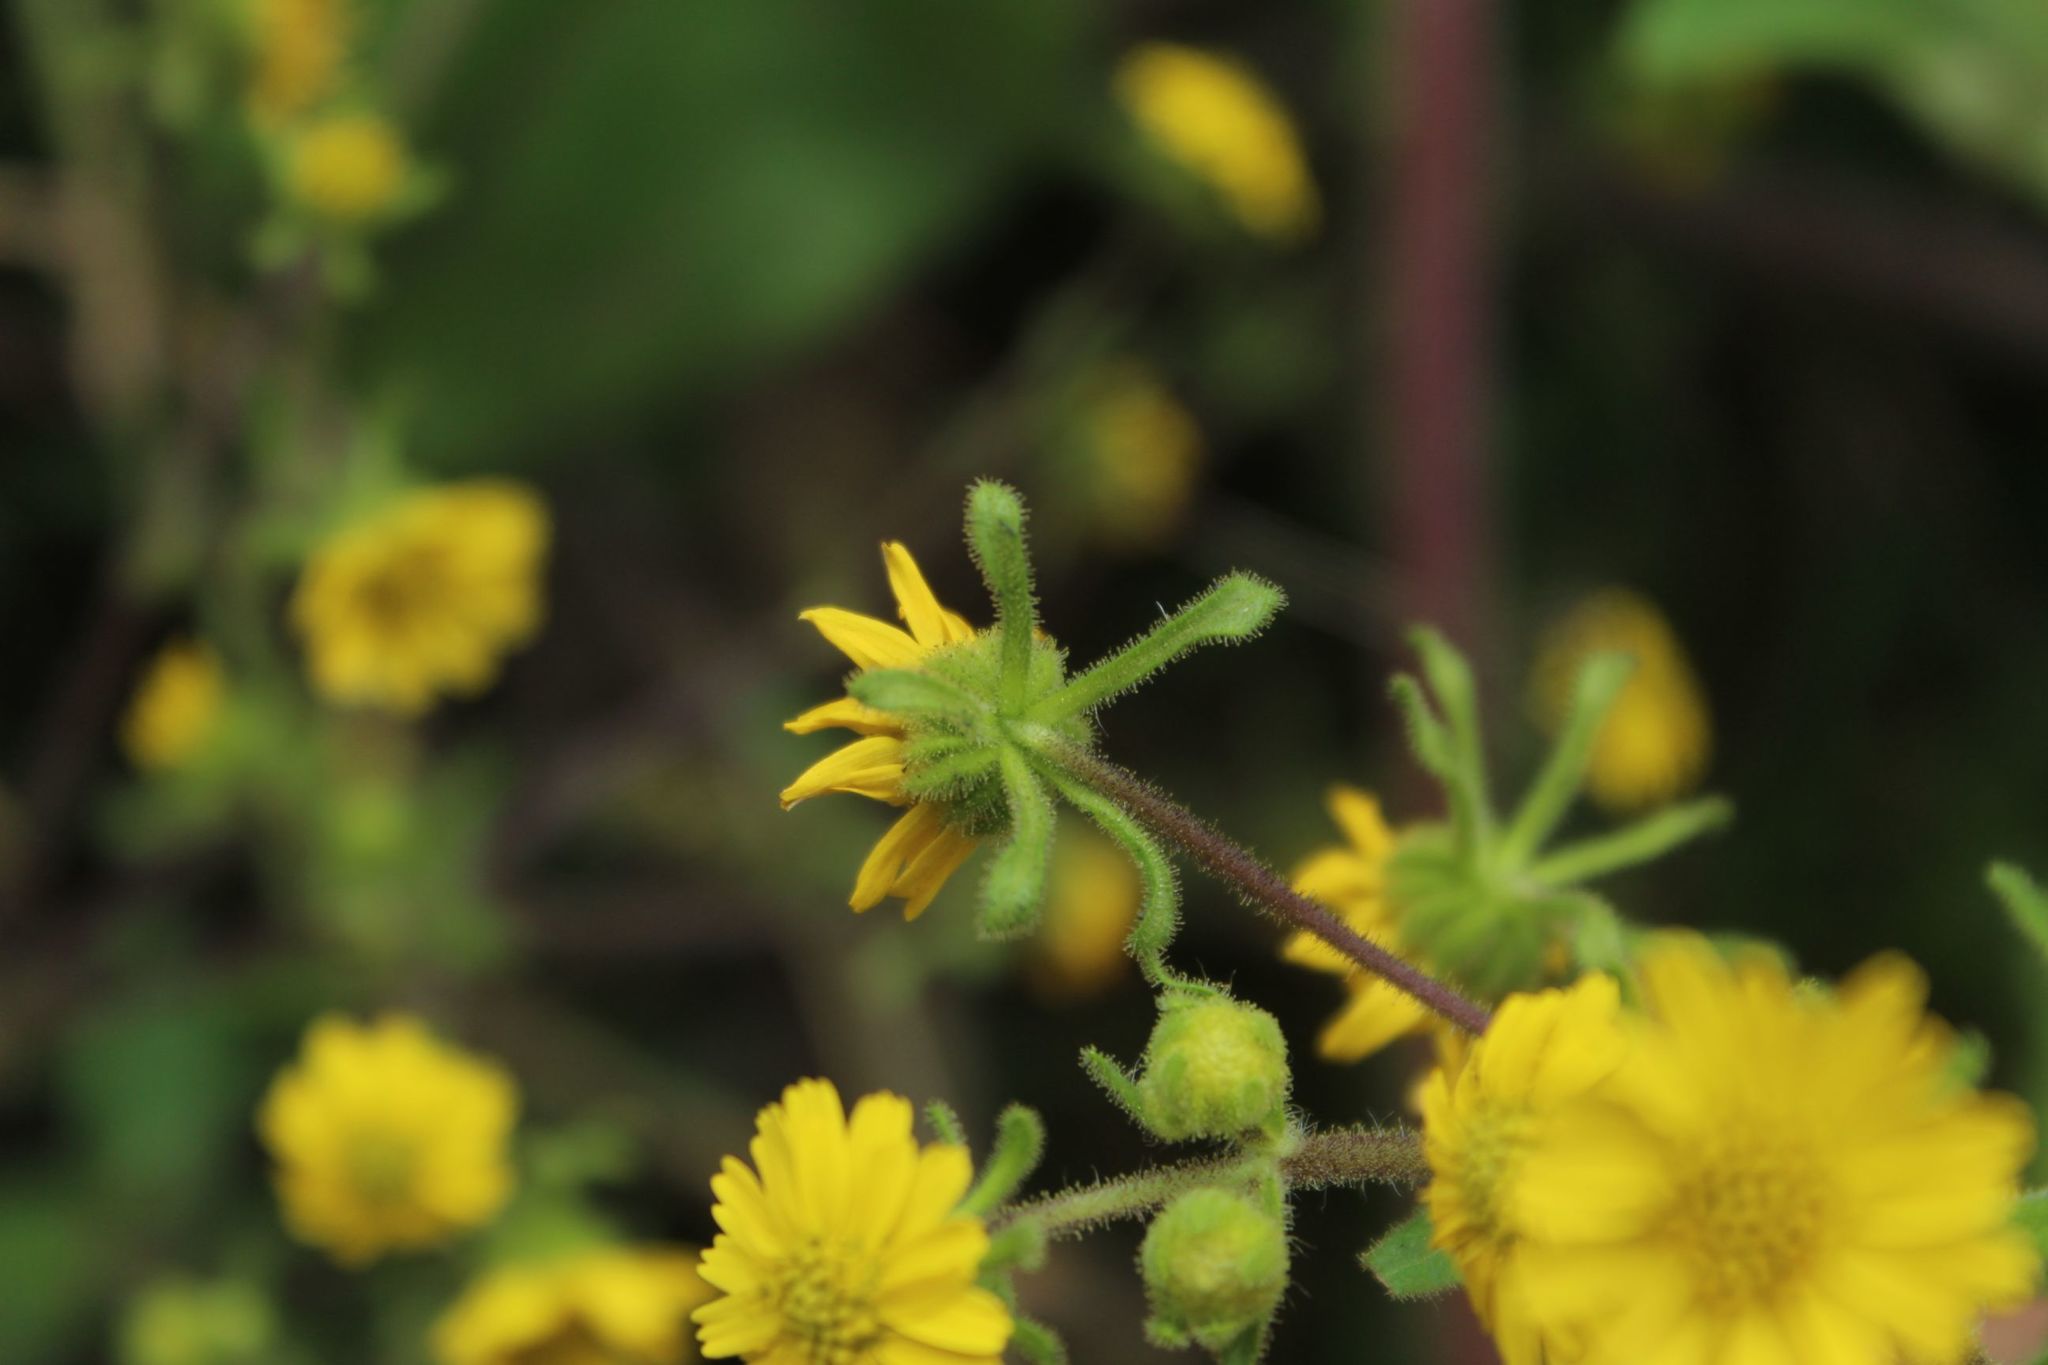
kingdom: Plantae
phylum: Tracheophyta
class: Magnoliopsida
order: Asterales
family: Asteraceae
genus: Sigesbeckia
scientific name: Sigesbeckia jorullensis
